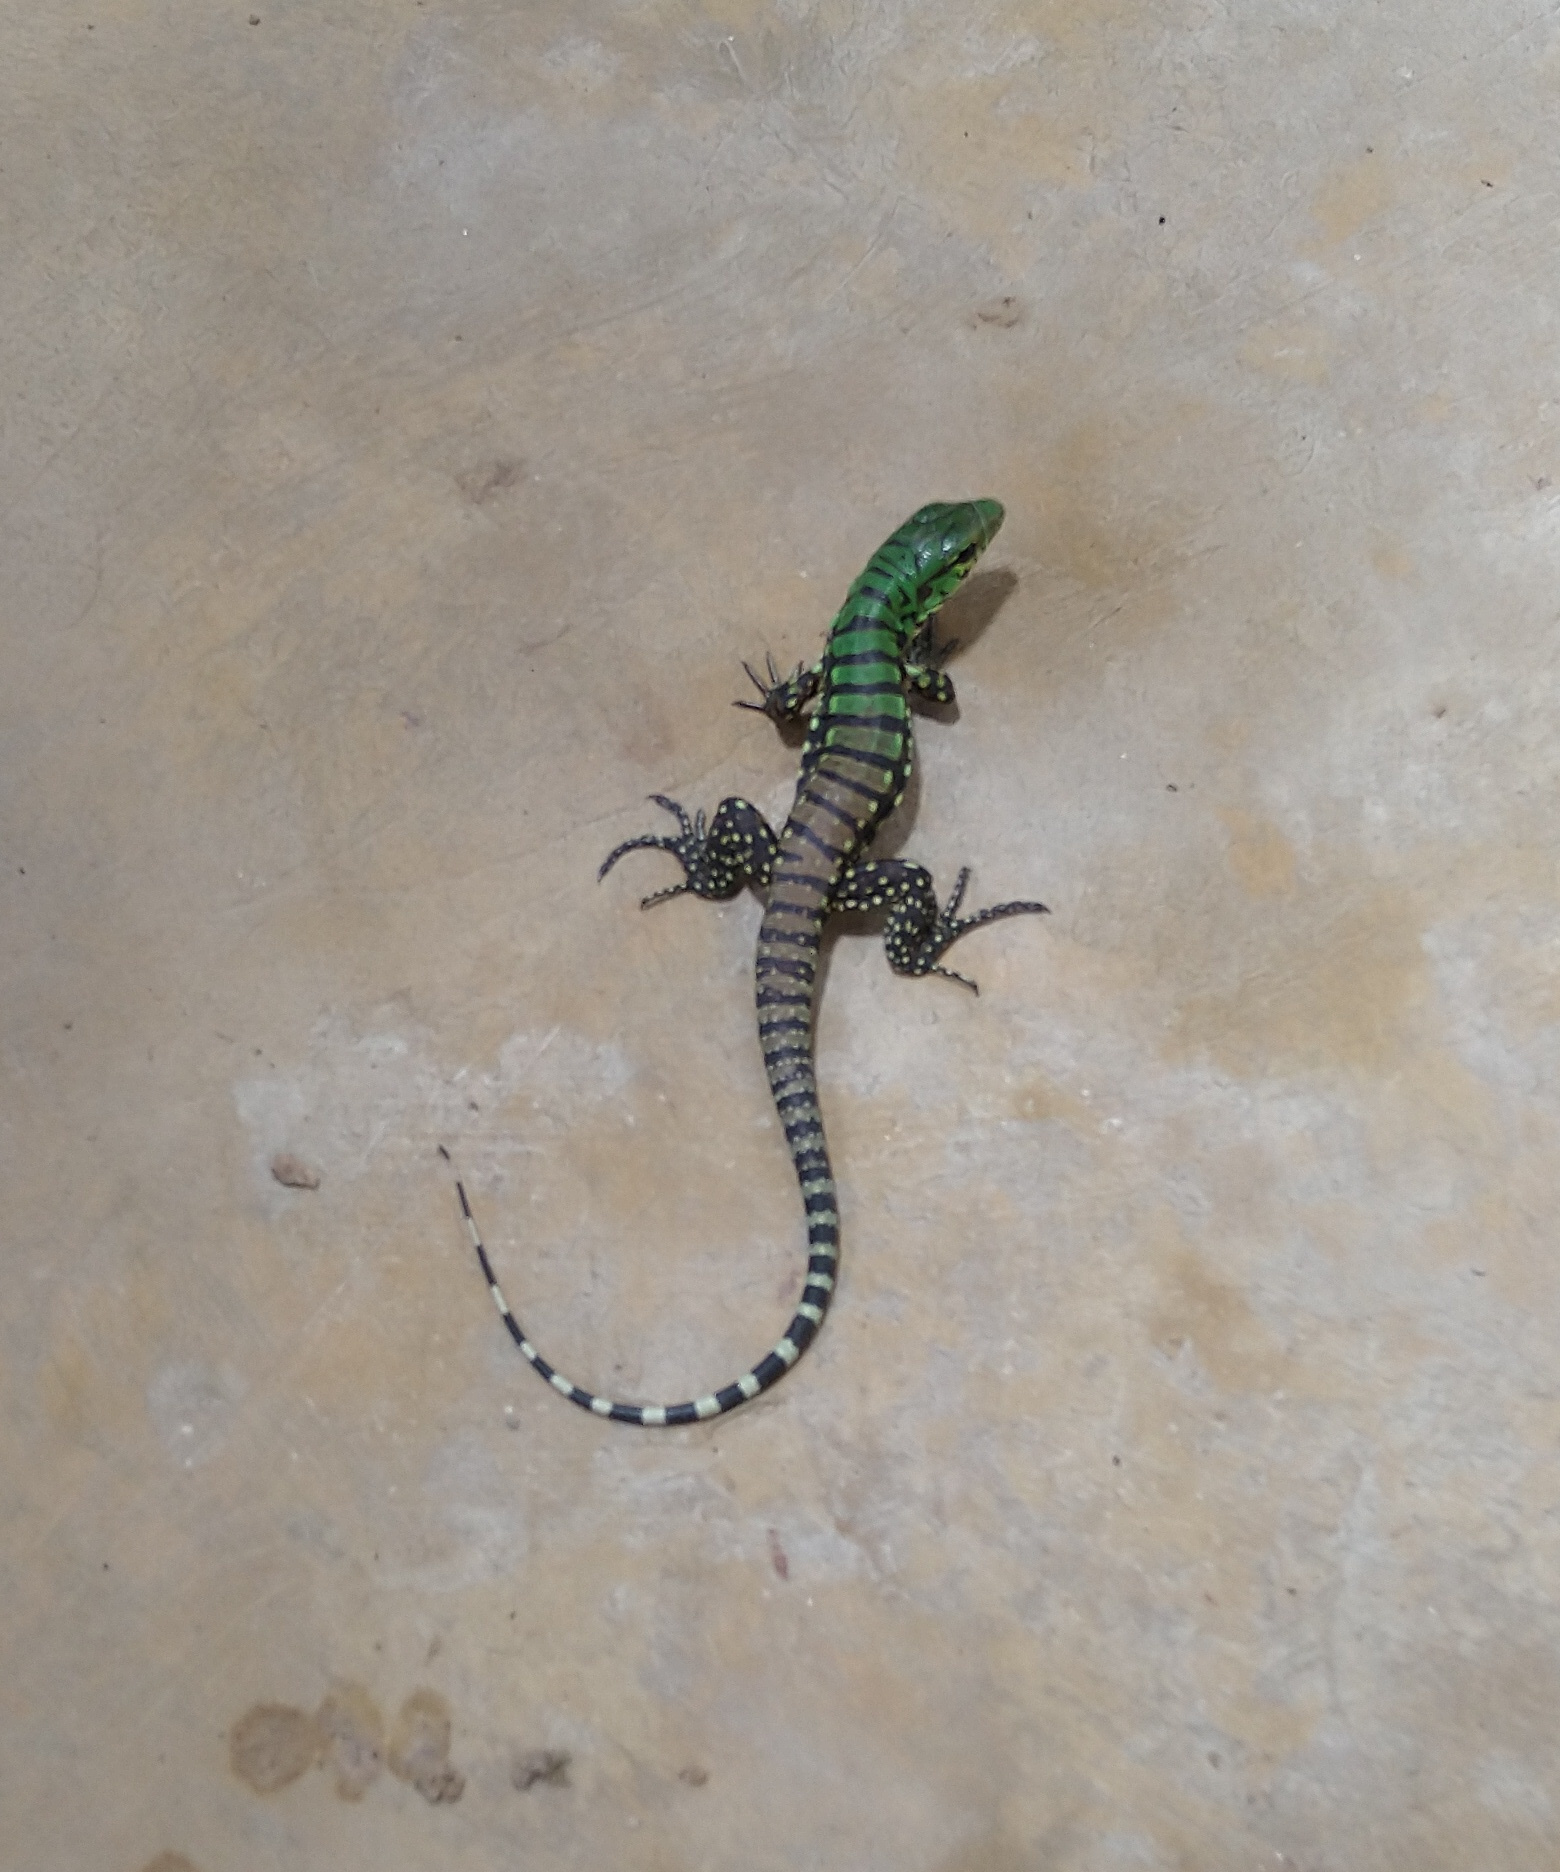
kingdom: Animalia
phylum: Chordata
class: Squamata
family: Teiidae
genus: Salvator
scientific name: Salvator merianae
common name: Argentine black and white tegu
